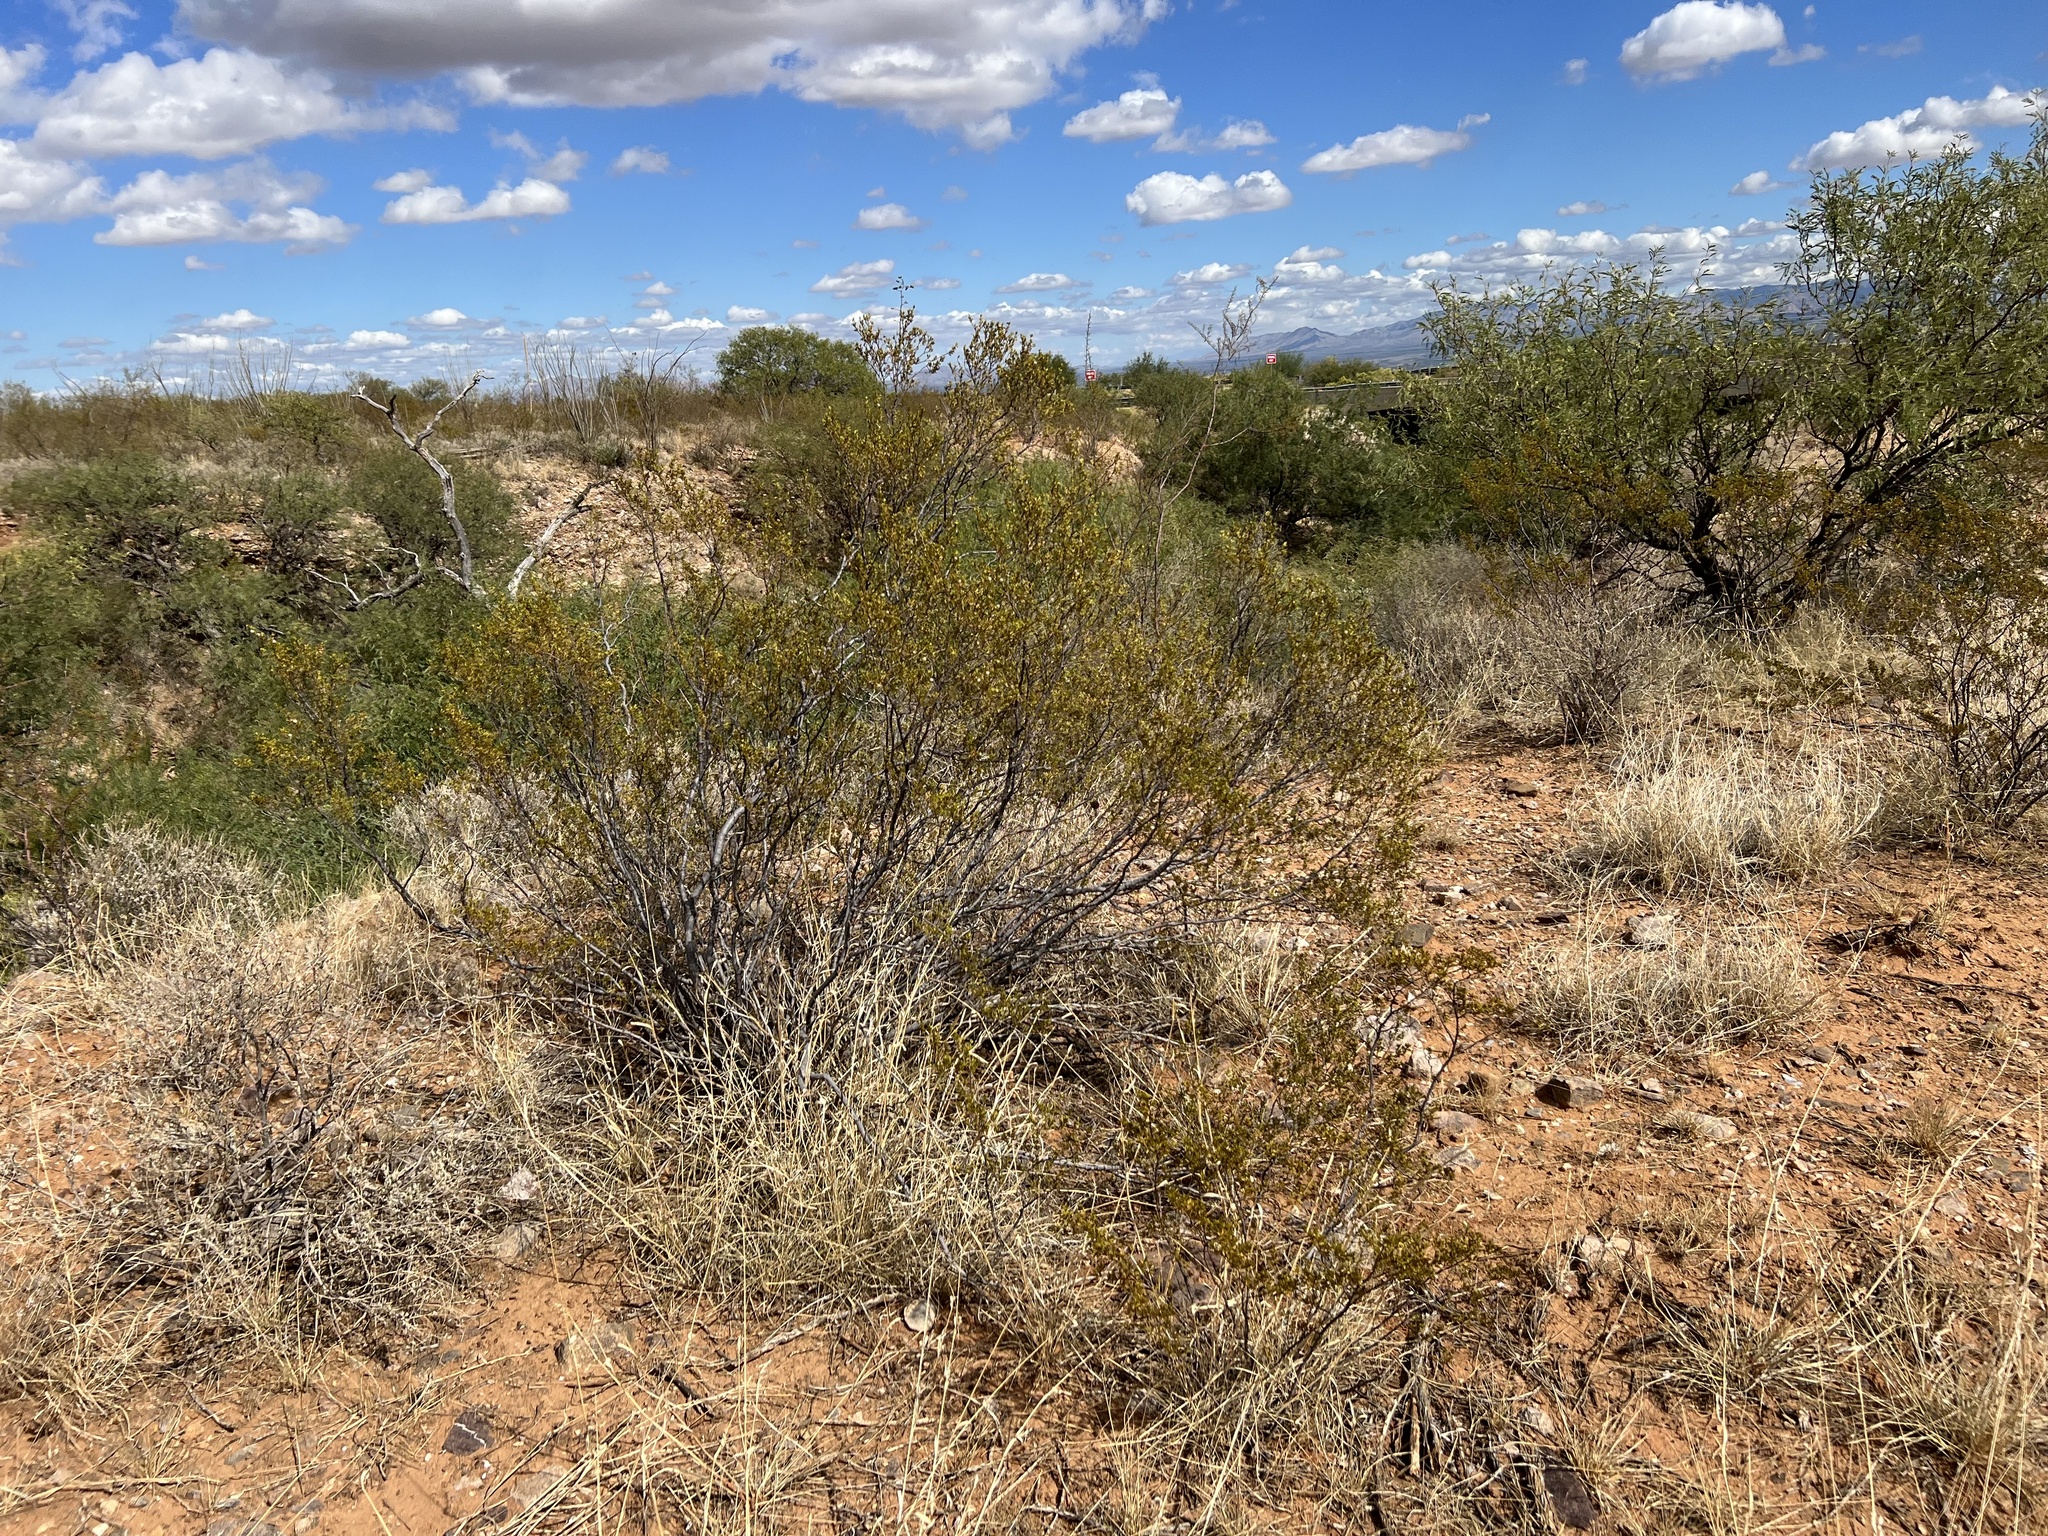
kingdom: Plantae
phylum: Tracheophyta
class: Magnoliopsida
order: Zygophyllales
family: Zygophyllaceae
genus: Larrea
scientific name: Larrea tridentata
